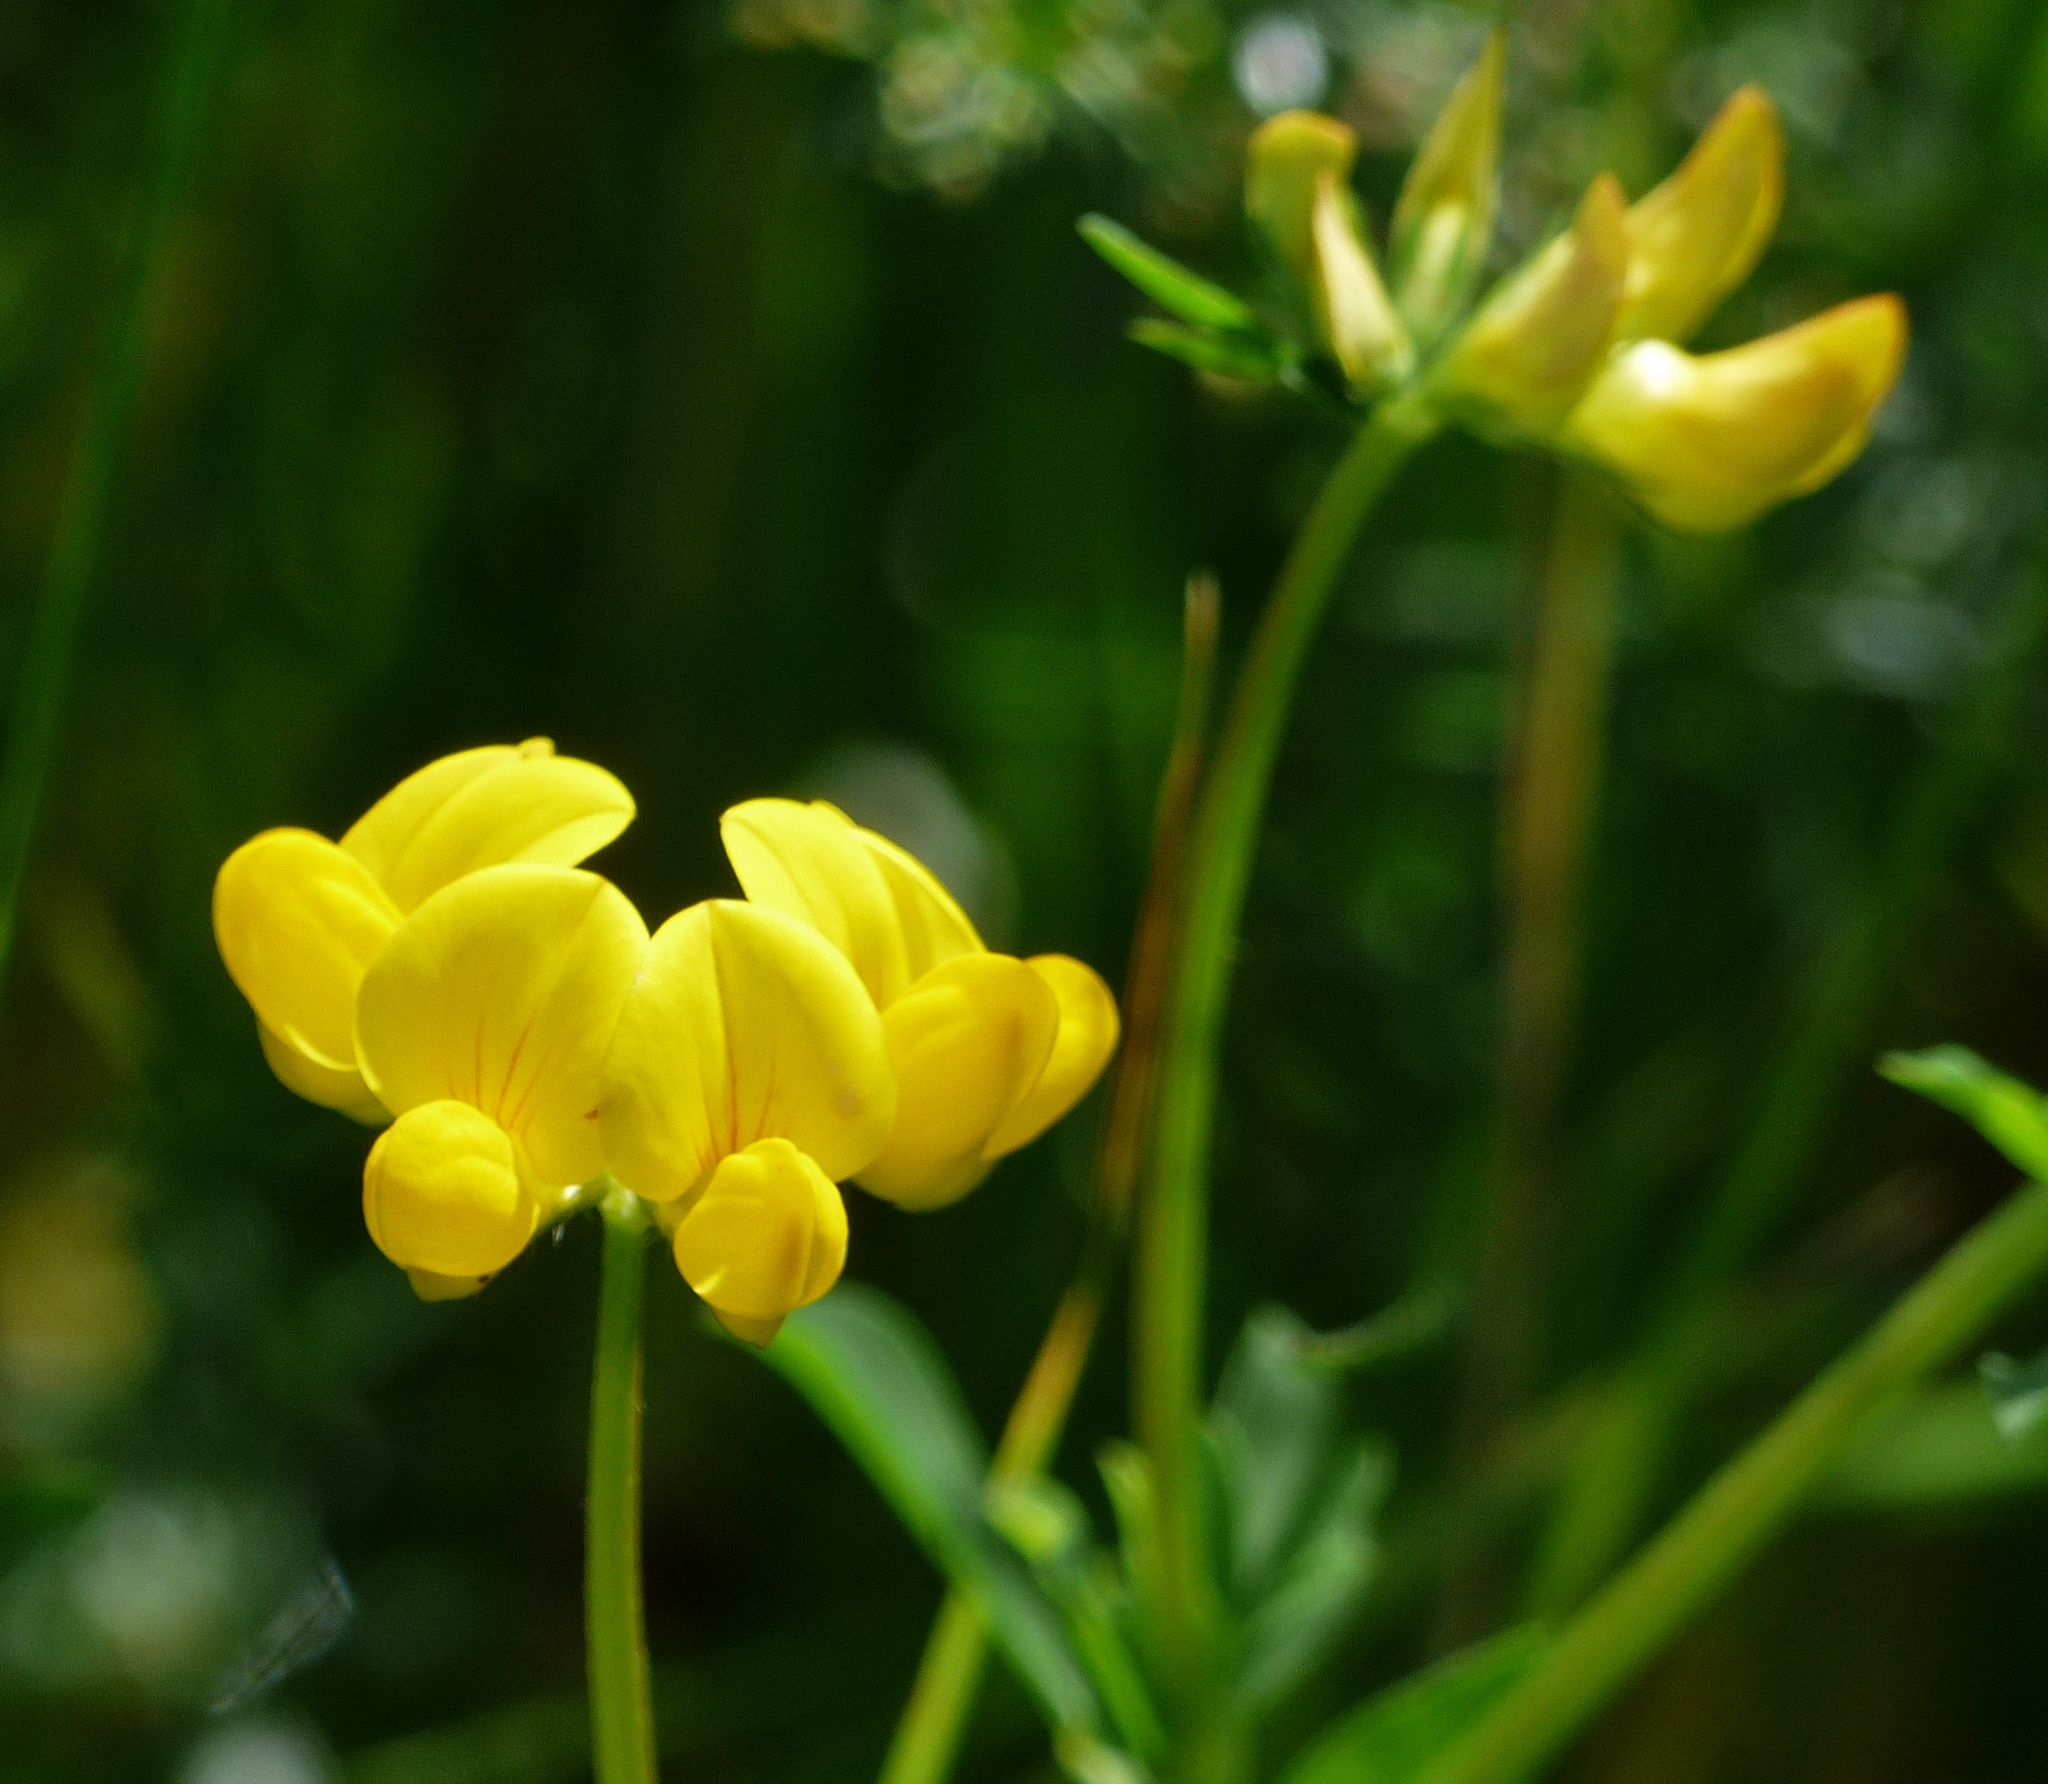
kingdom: Plantae
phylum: Tracheophyta
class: Magnoliopsida
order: Fabales
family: Fabaceae
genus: Lotus
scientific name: Lotus corniculatus
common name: Common bird's-foot-trefoil
